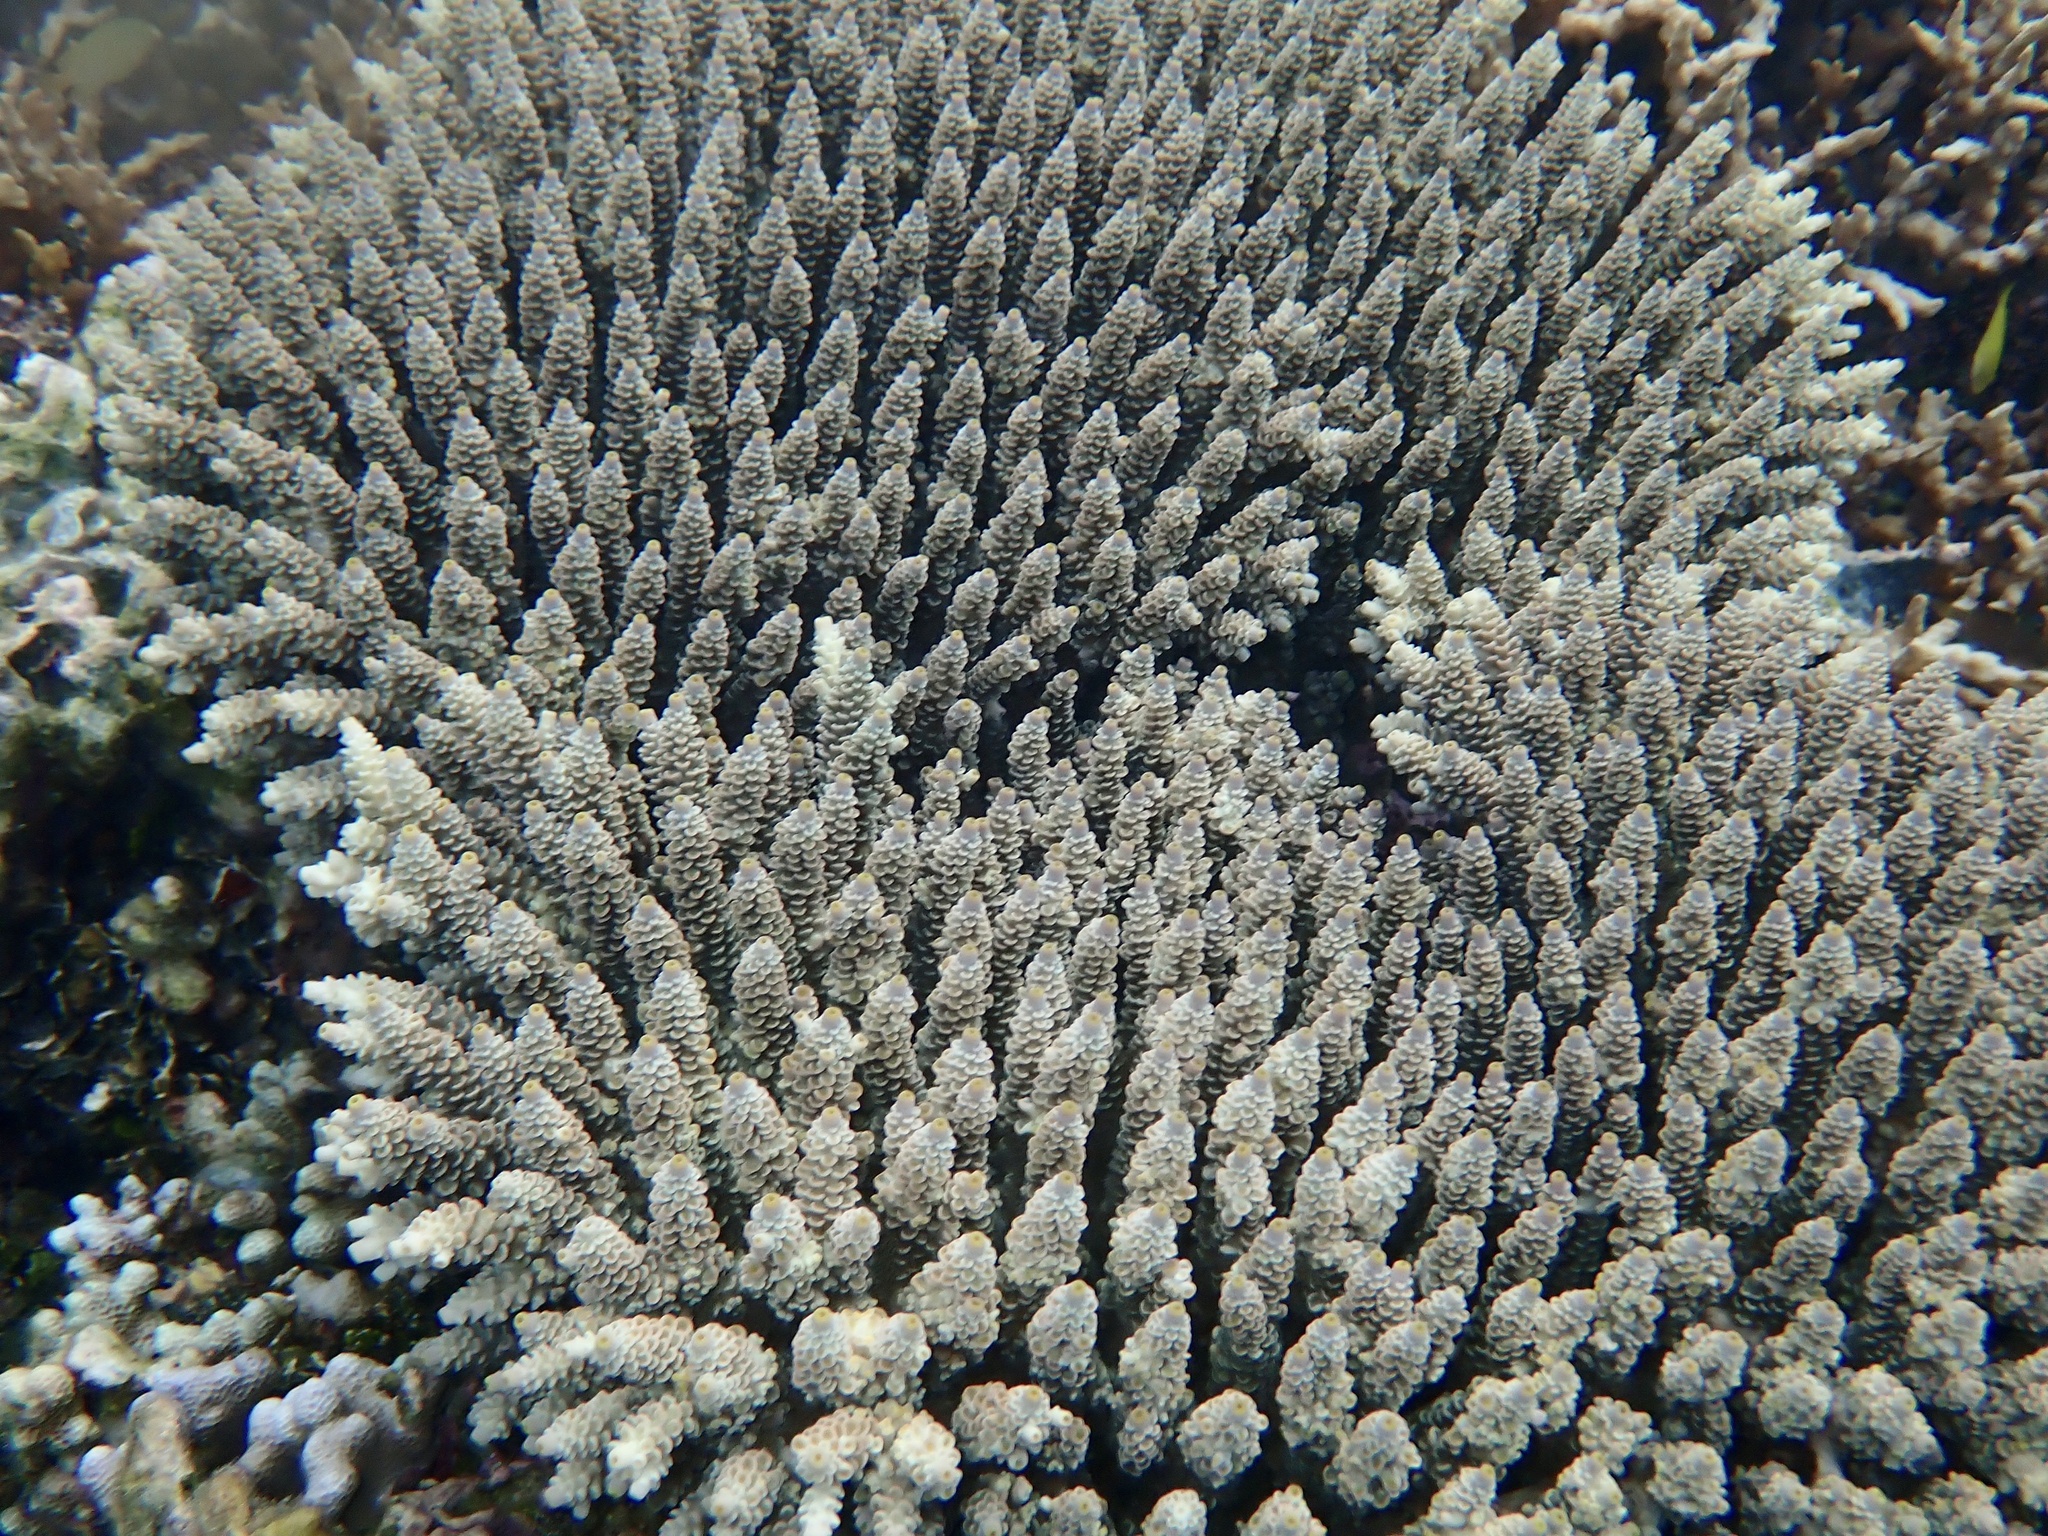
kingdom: Animalia
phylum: Cnidaria
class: Anthozoa
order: Scleractinia
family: Acroporidae
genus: Acropora
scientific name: Acropora tenuis
